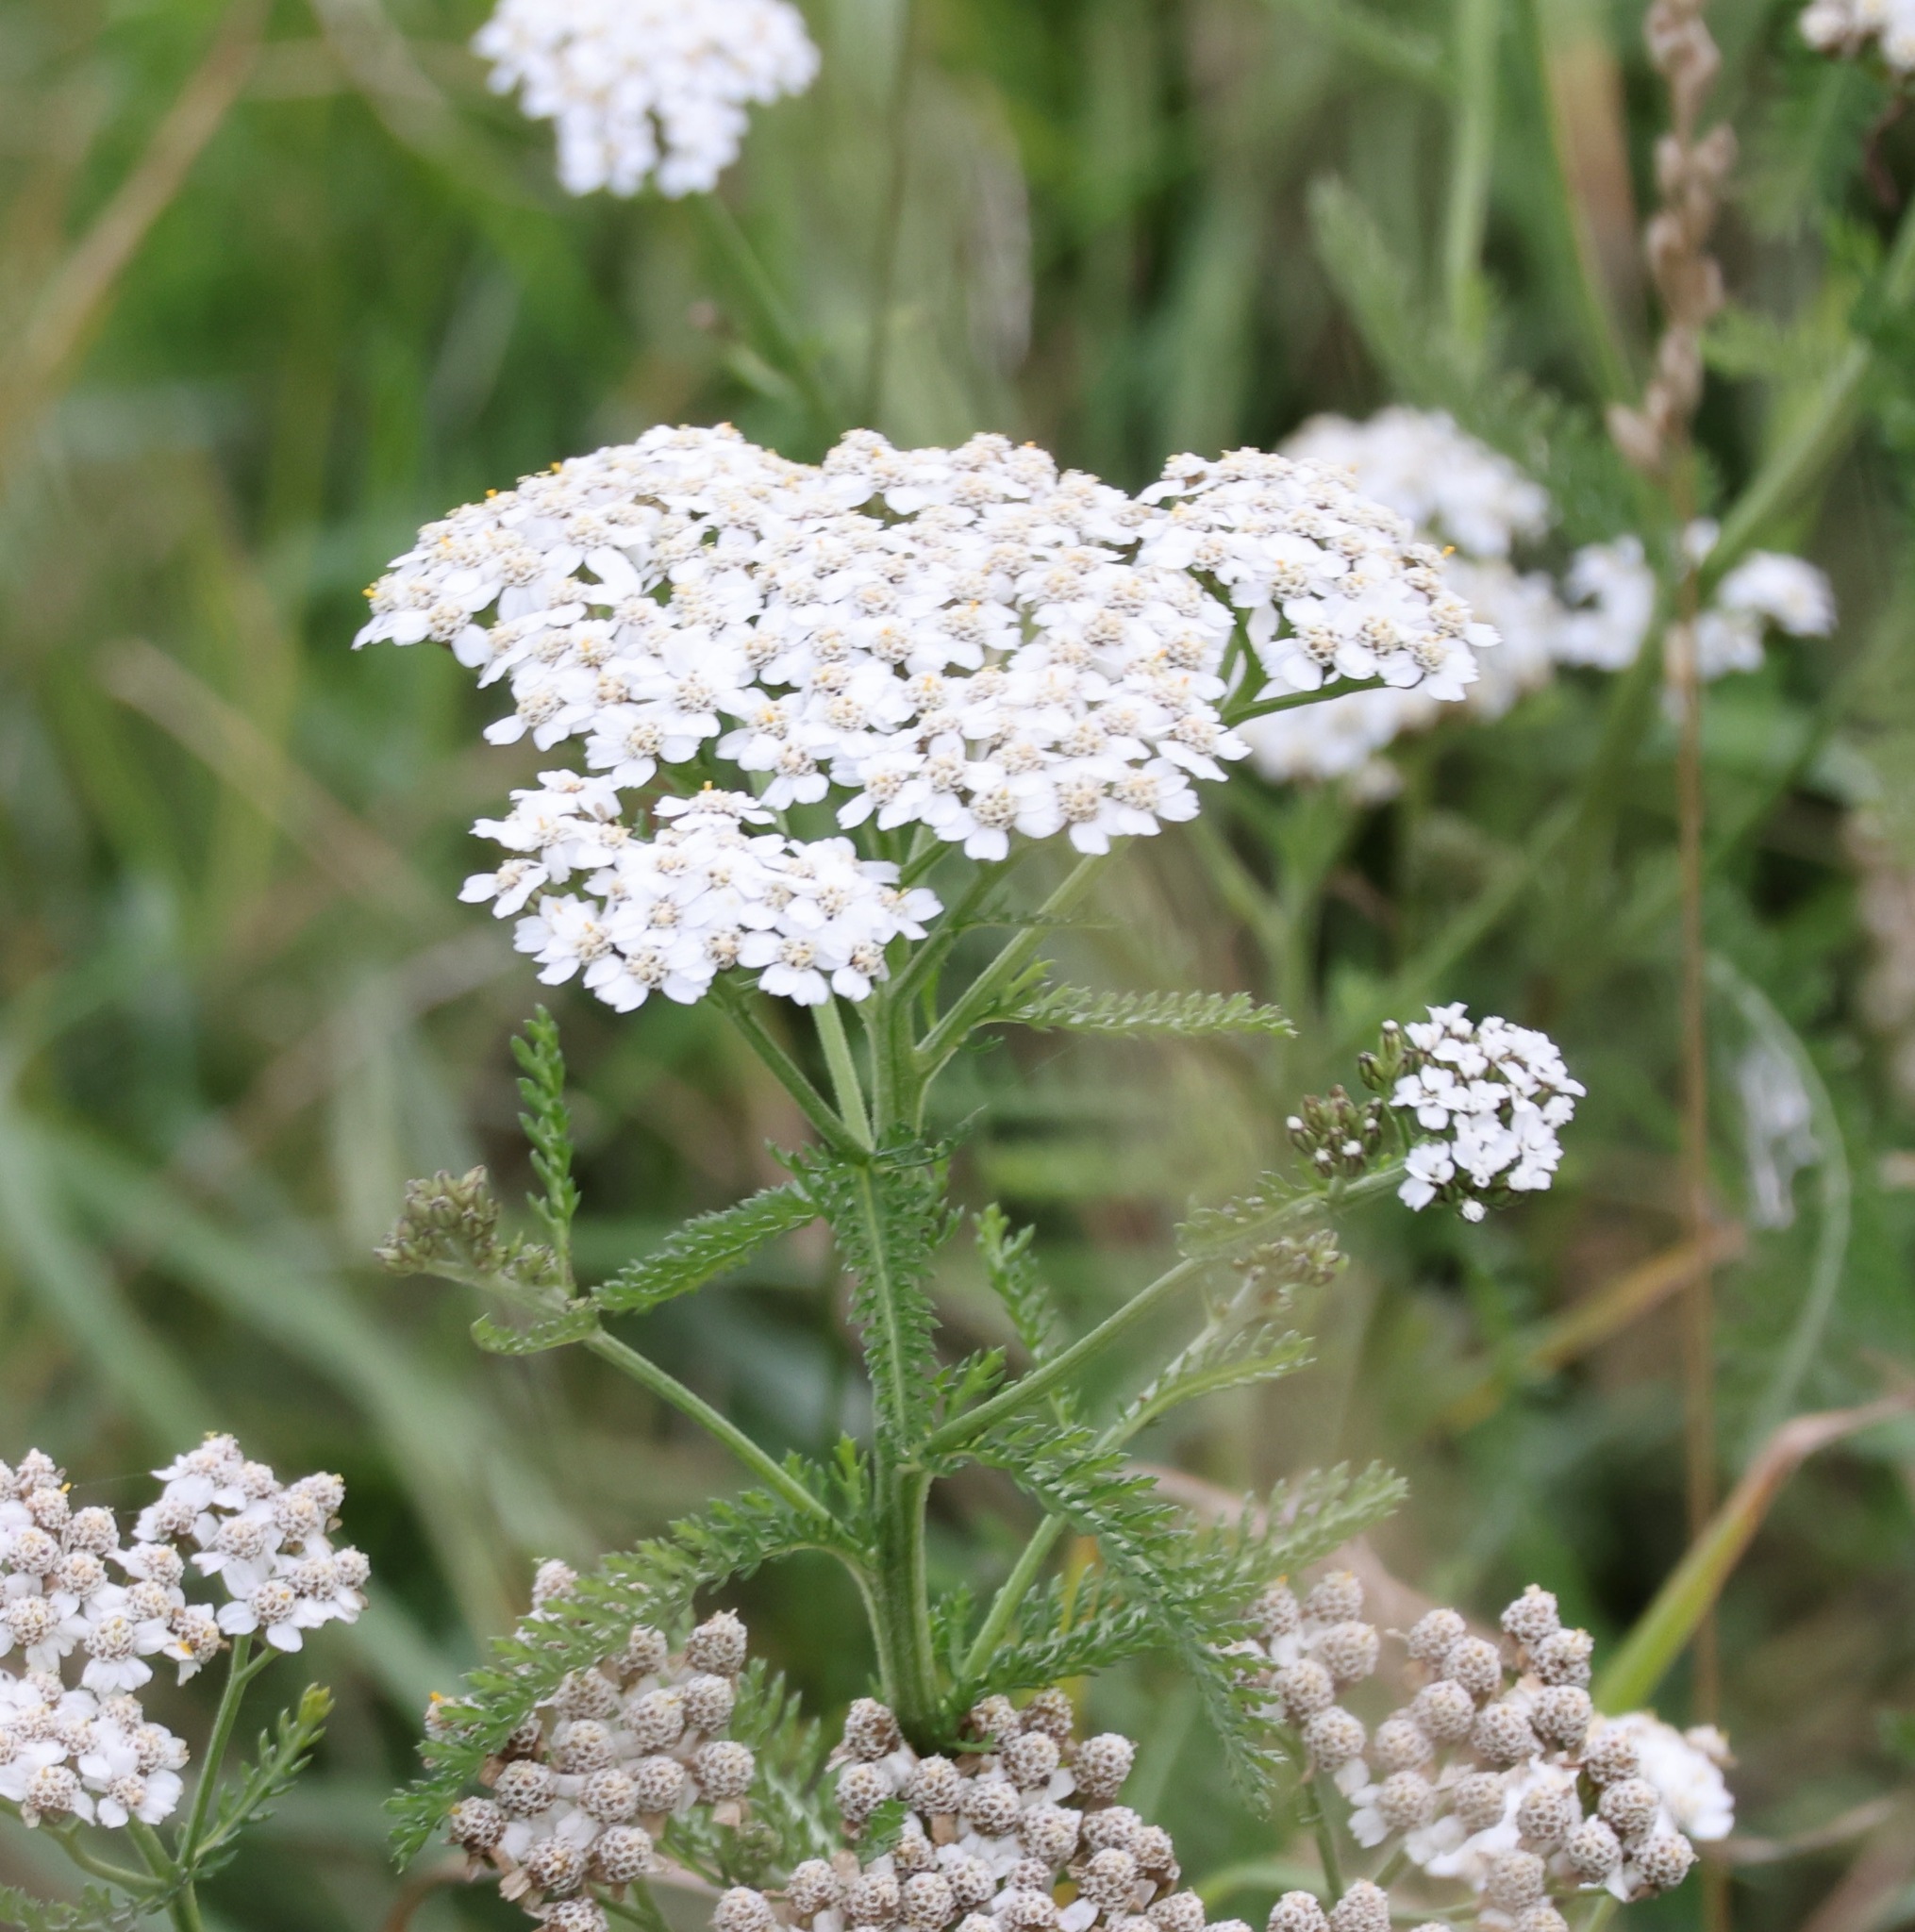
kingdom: Plantae
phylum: Tracheophyta
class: Magnoliopsida
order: Asterales
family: Asteraceae
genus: Achillea
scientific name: Achillea millefolium
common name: Yarrow
